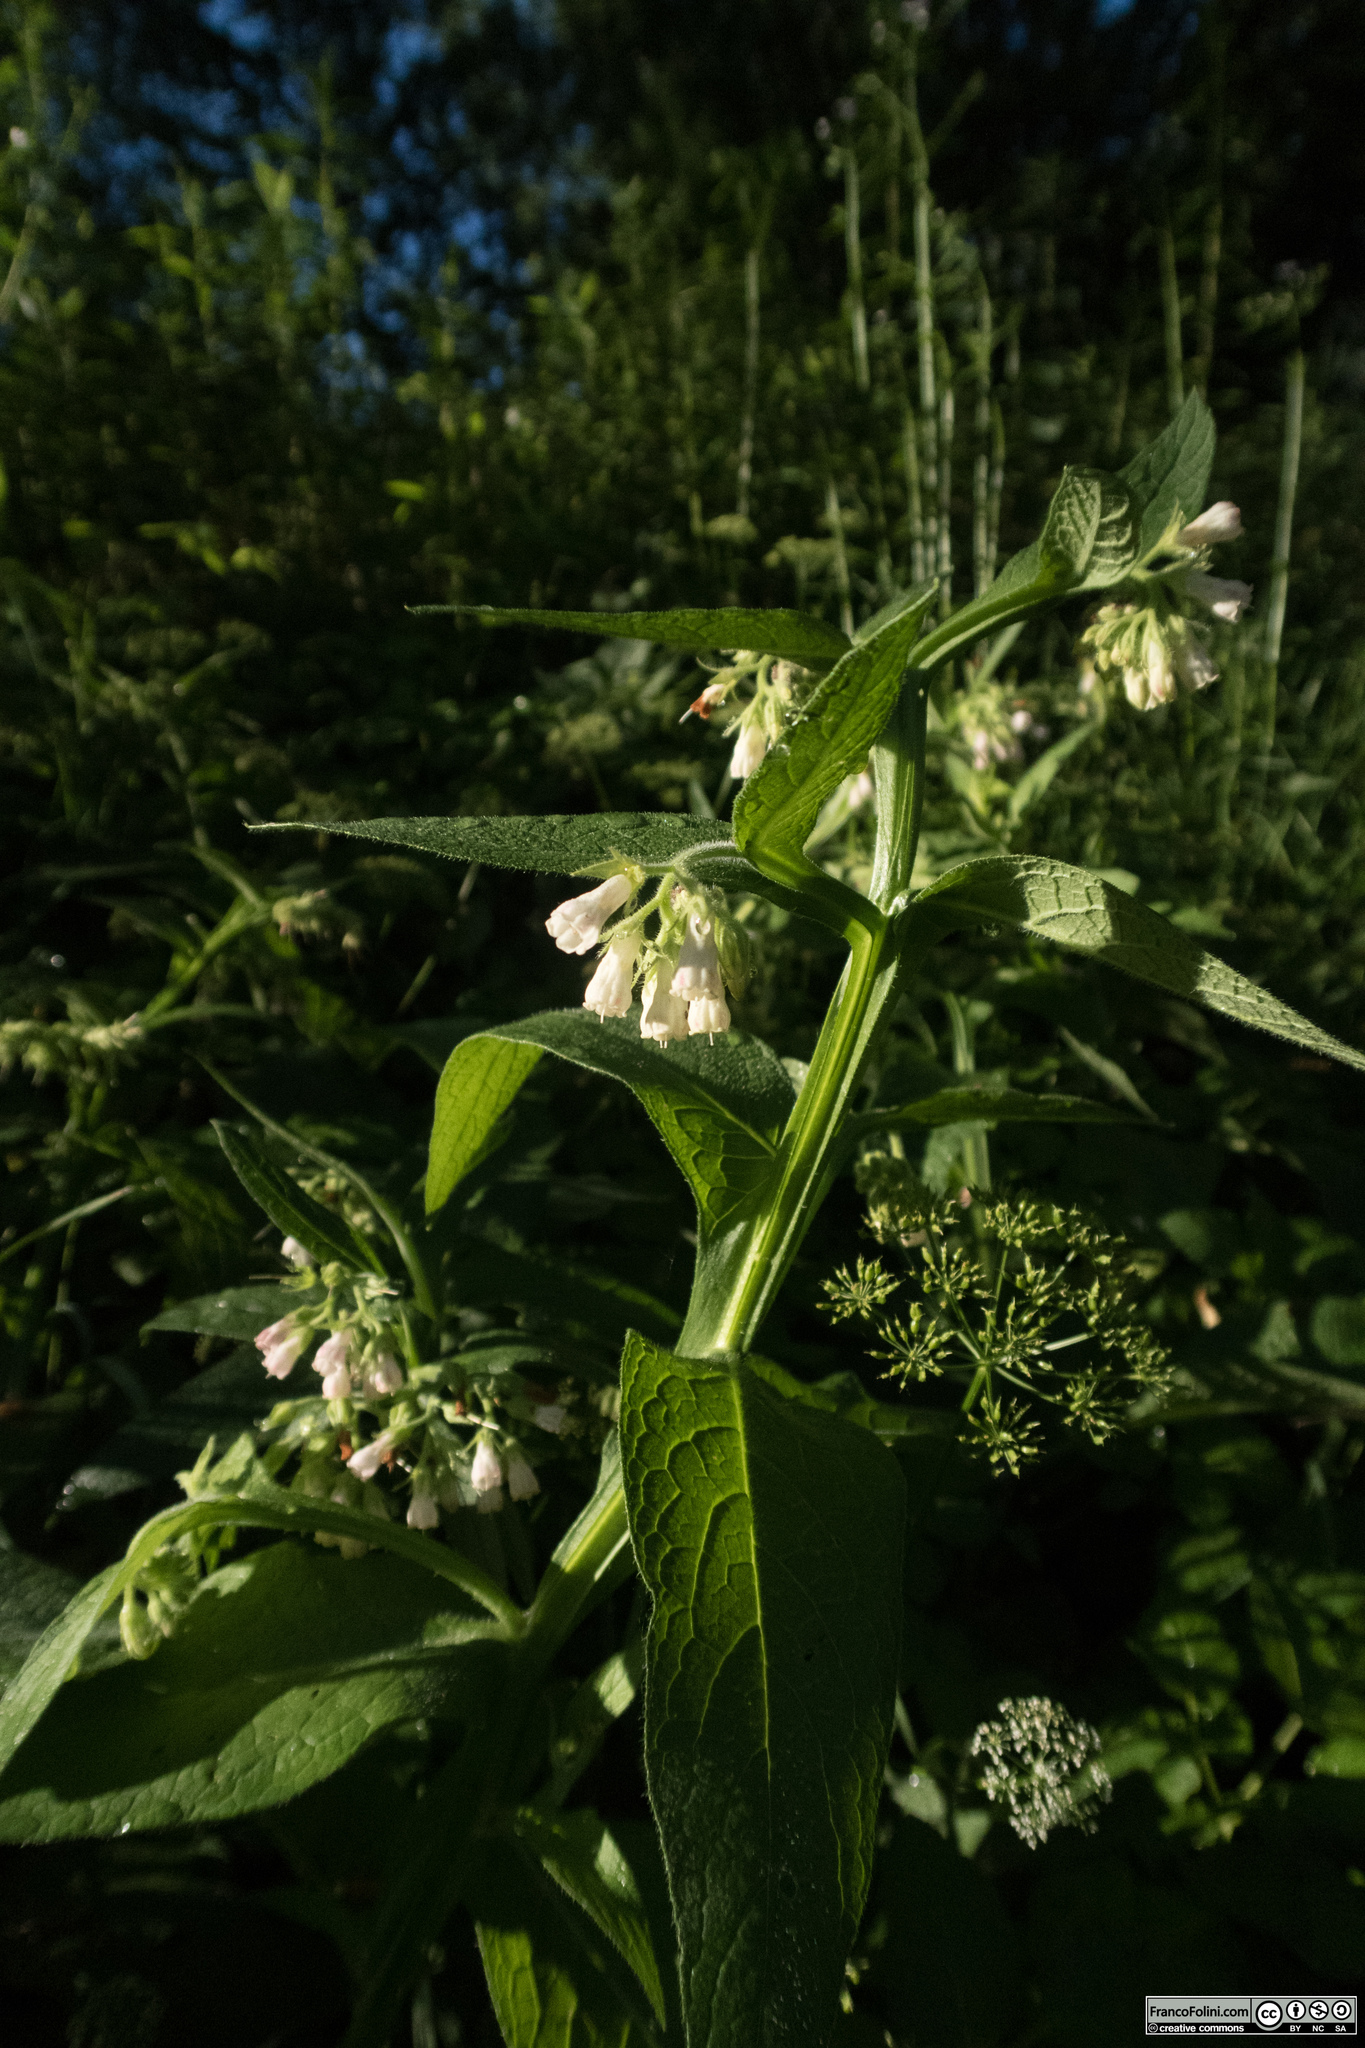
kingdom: Plantae
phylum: Tracheophyta
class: Magnoliopsida
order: Boraginales
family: Boraginaceae
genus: Symphytum
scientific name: Symphytum officinale
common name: Common comfrey
